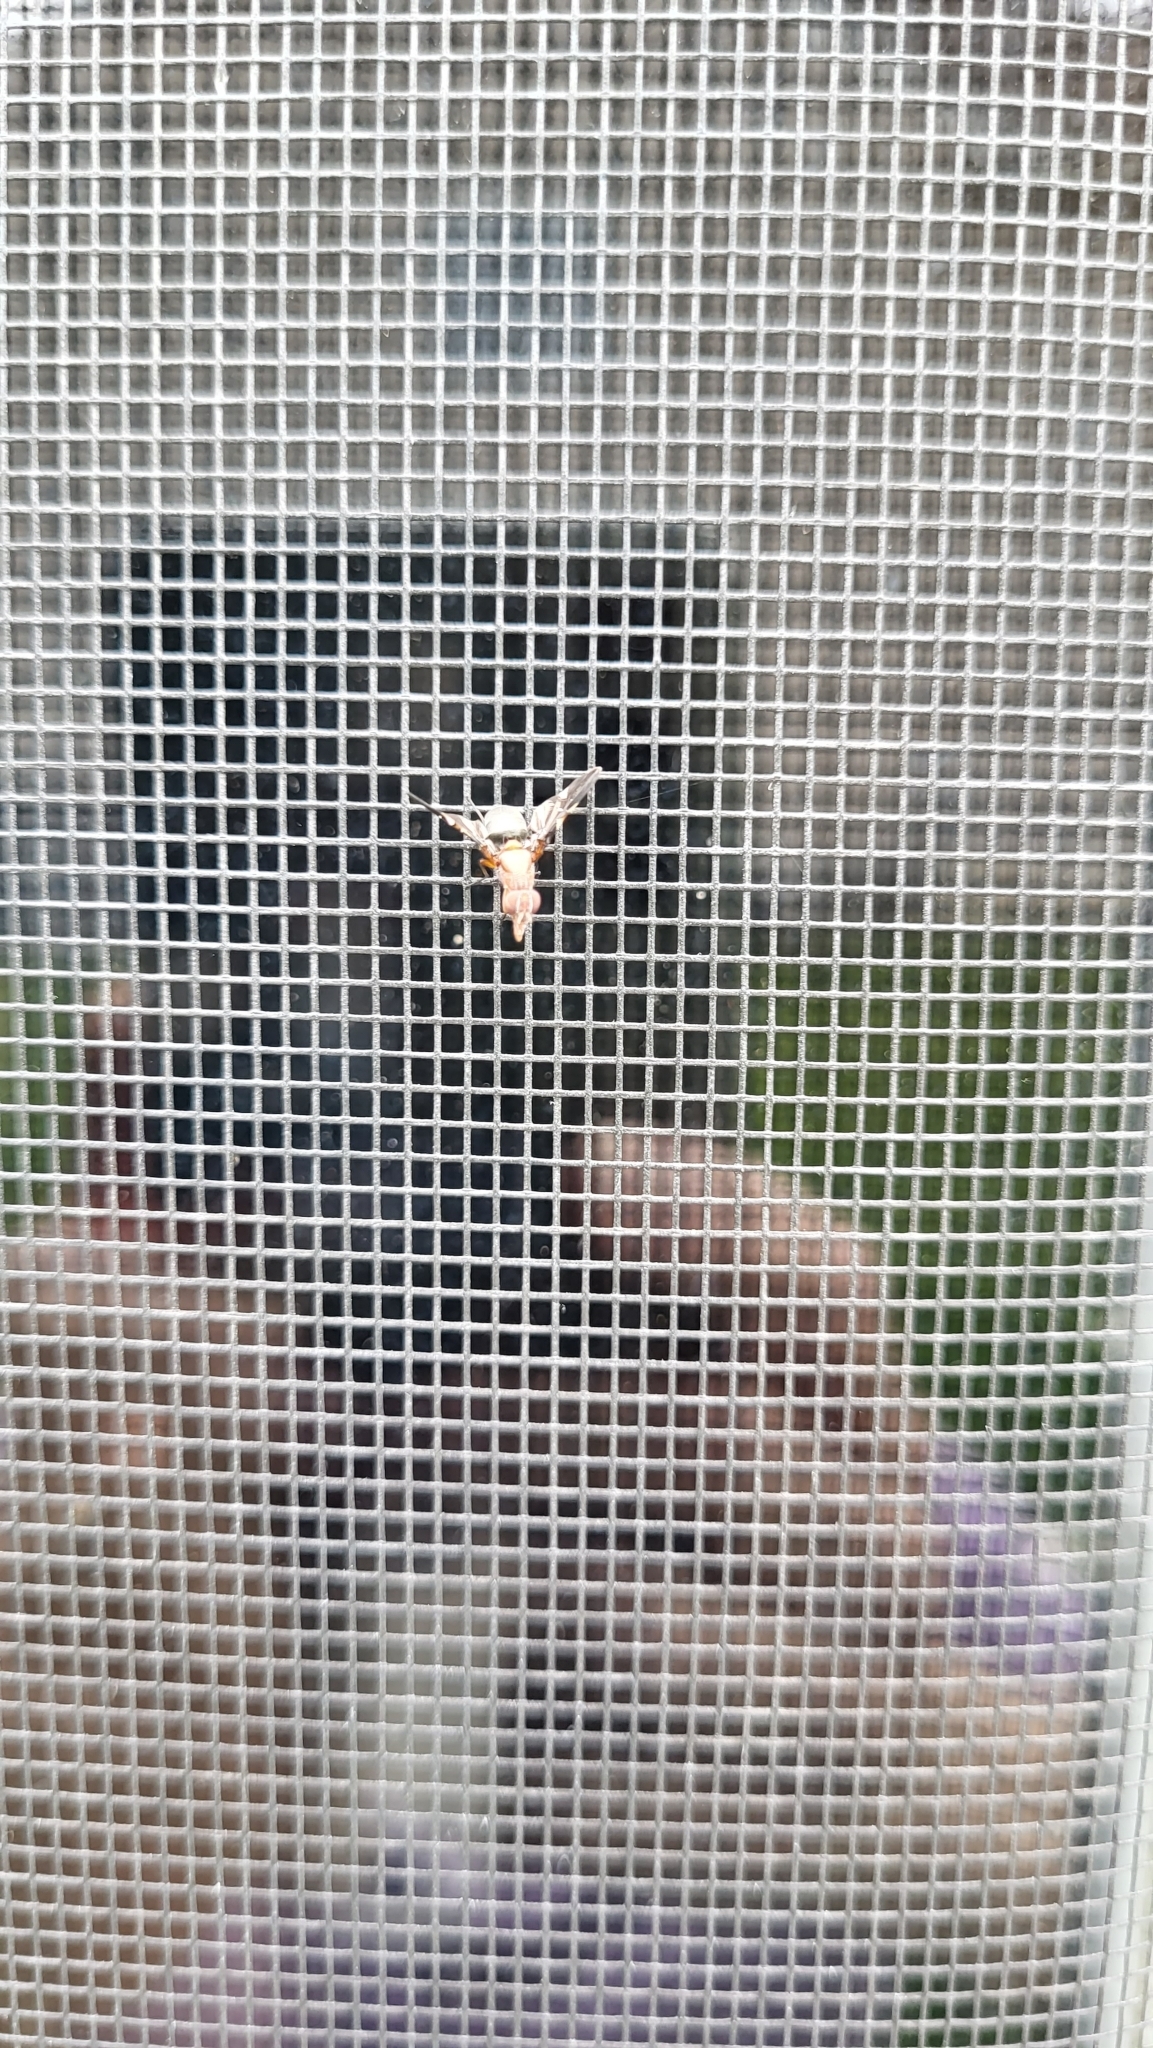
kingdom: Animalia
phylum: Arthropoda
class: Insecta
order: Diptera
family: Ulidiidae
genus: Delphinia
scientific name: Delphinia picta
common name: Common picture-winged fly
